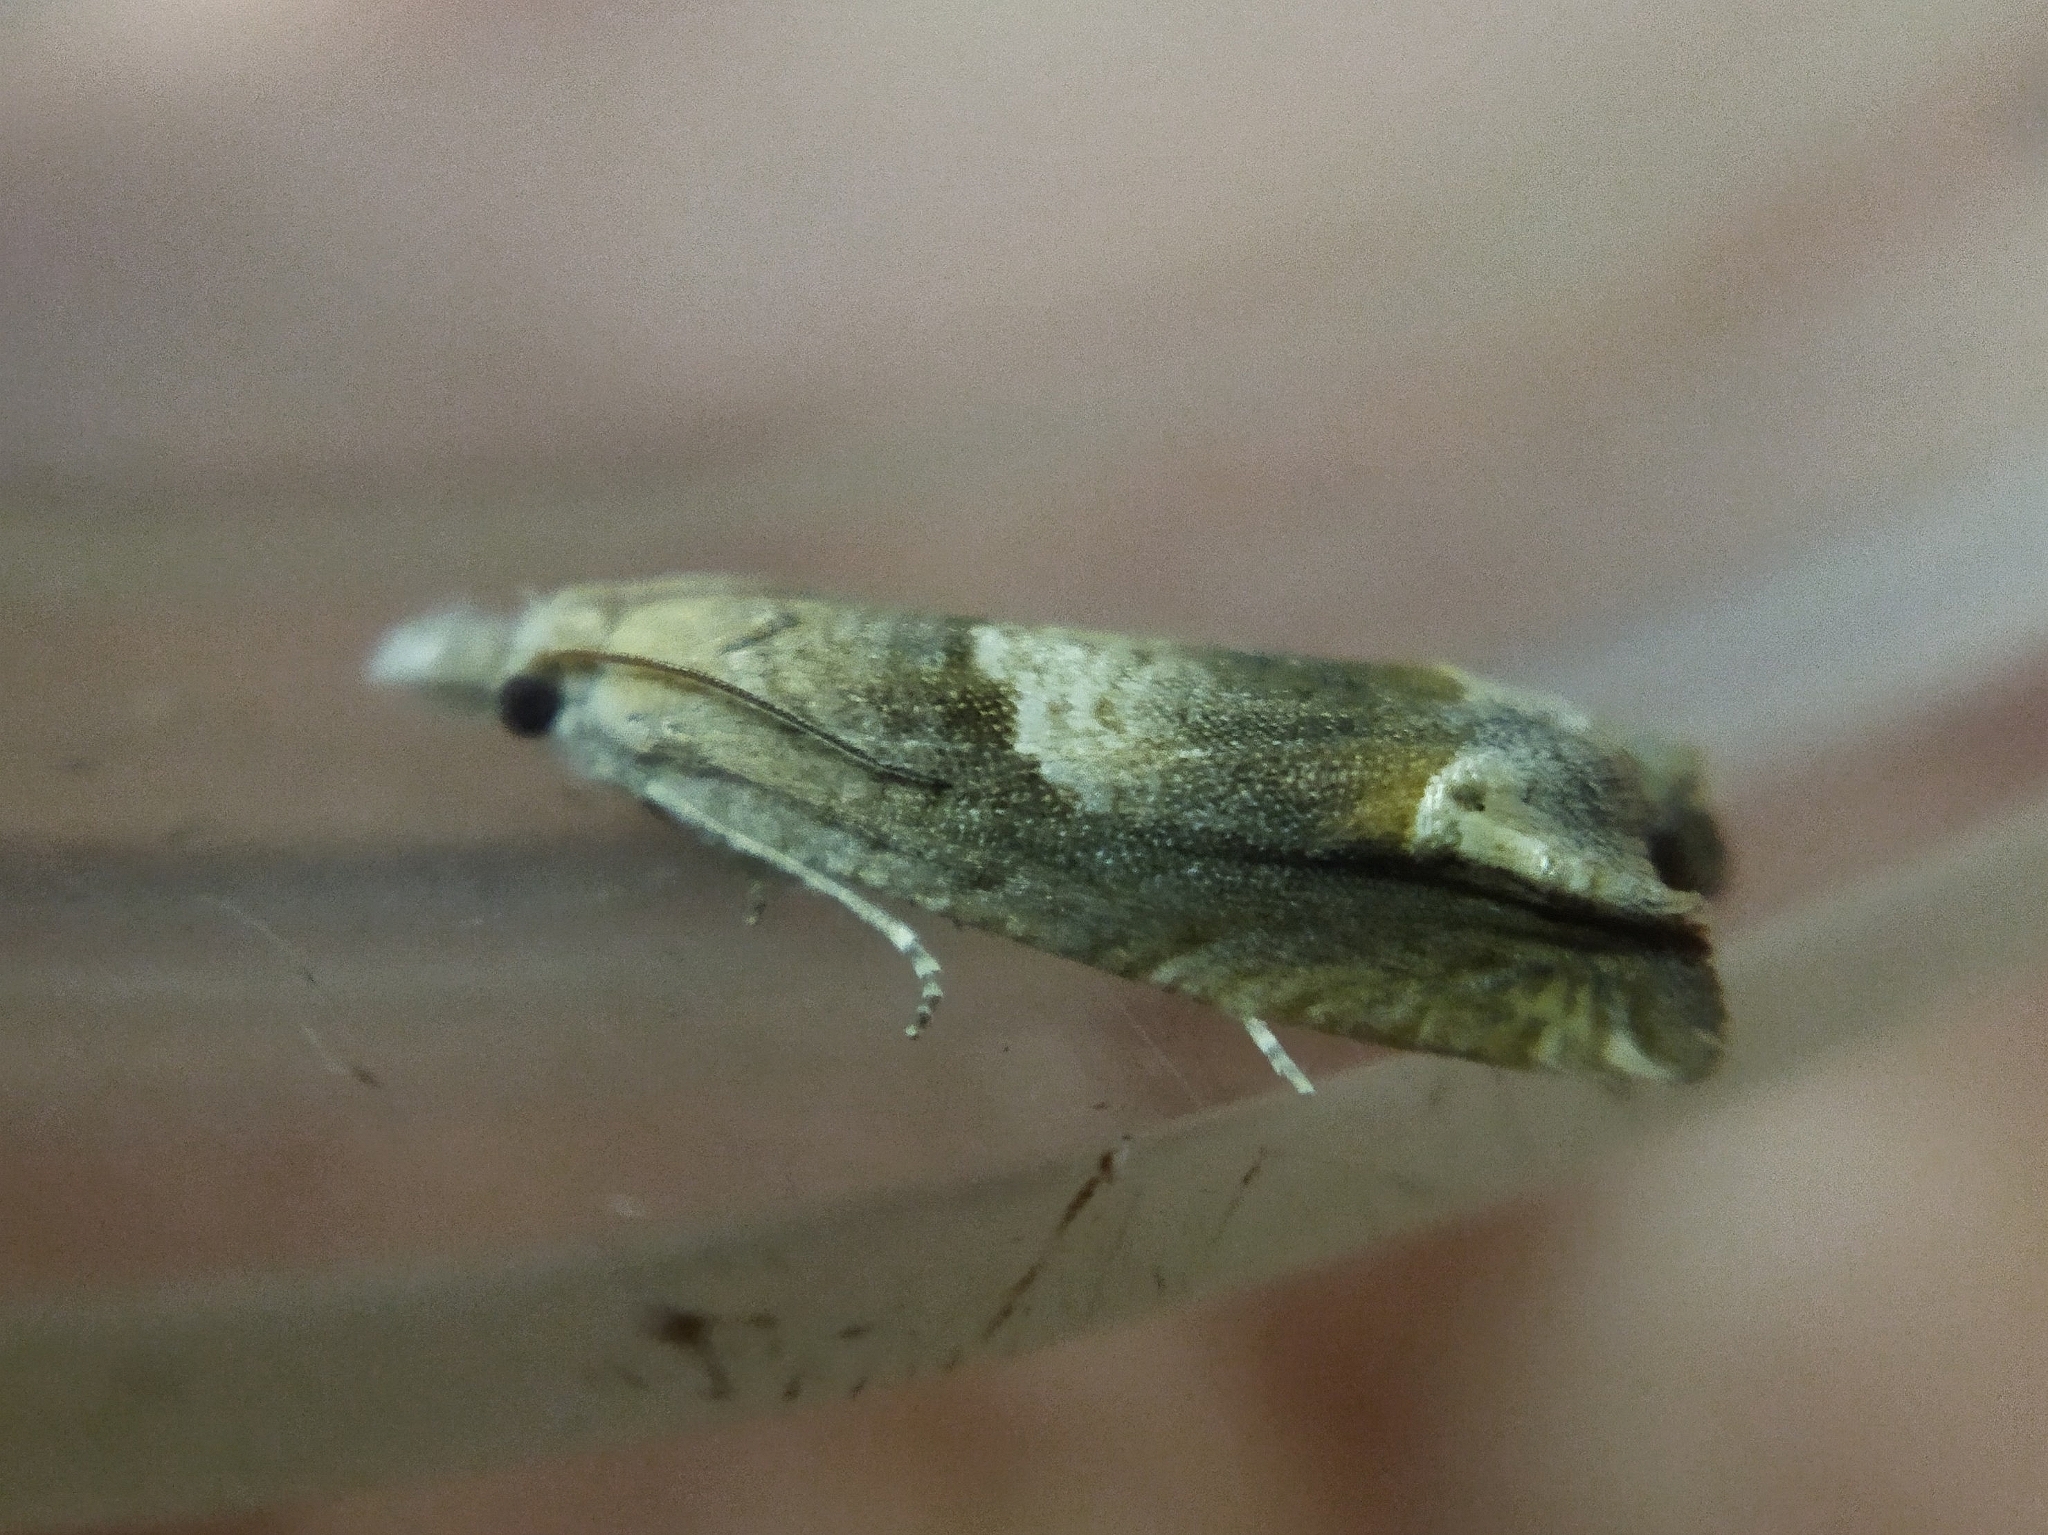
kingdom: Animalia
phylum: Arthropoda
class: Insecta
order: Lepidoptera
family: Tortricidae
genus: Eucosma
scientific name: Eucosma conterminana
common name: Pale lettuce bell
